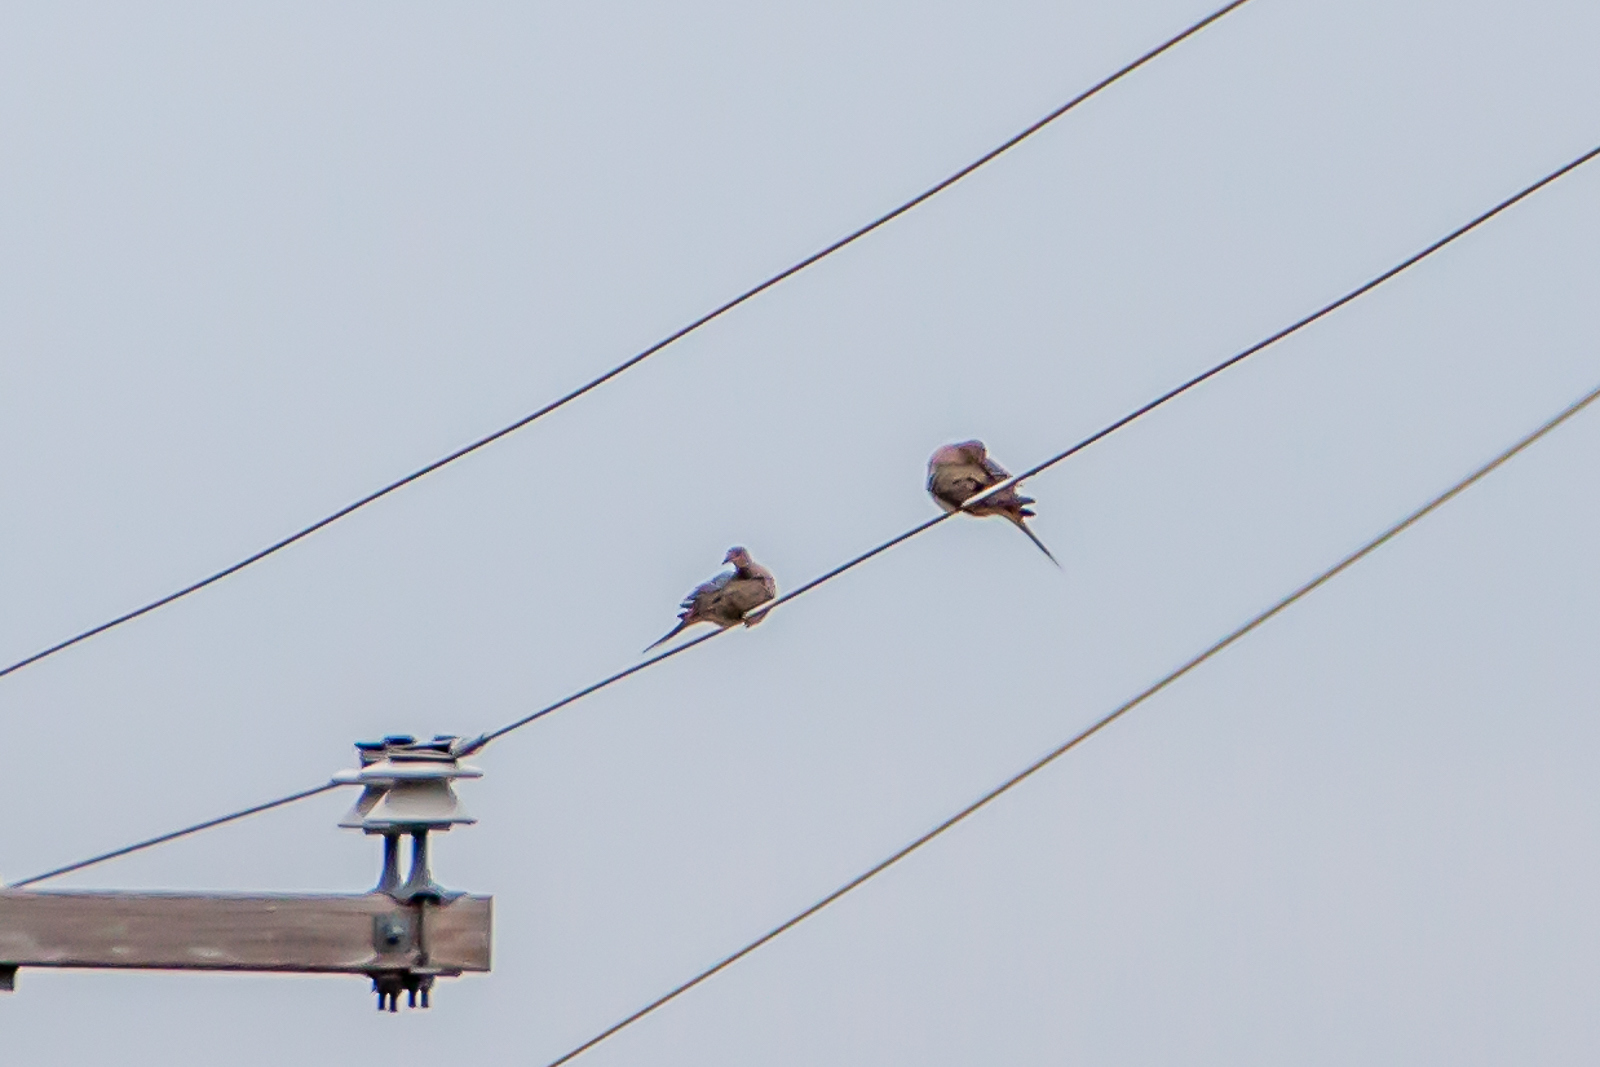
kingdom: Animalia
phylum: Chordata
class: Aves
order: Columbiformes
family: Columbidae
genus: Zenaida
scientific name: Zenaida macroura
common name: Mourning dove
